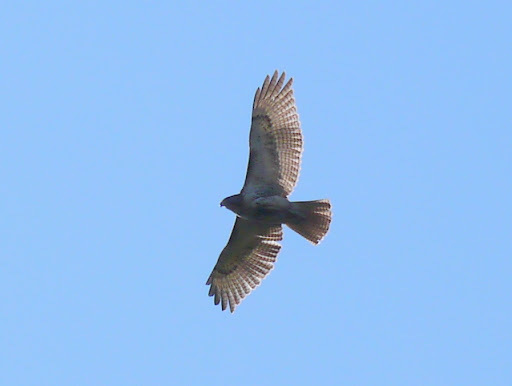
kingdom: Animalia
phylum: Chordata
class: Aves
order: Accipitriformes
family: Accipitridae
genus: Buteo
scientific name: Buteo jamaicensis
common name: Red-tailed hawk
